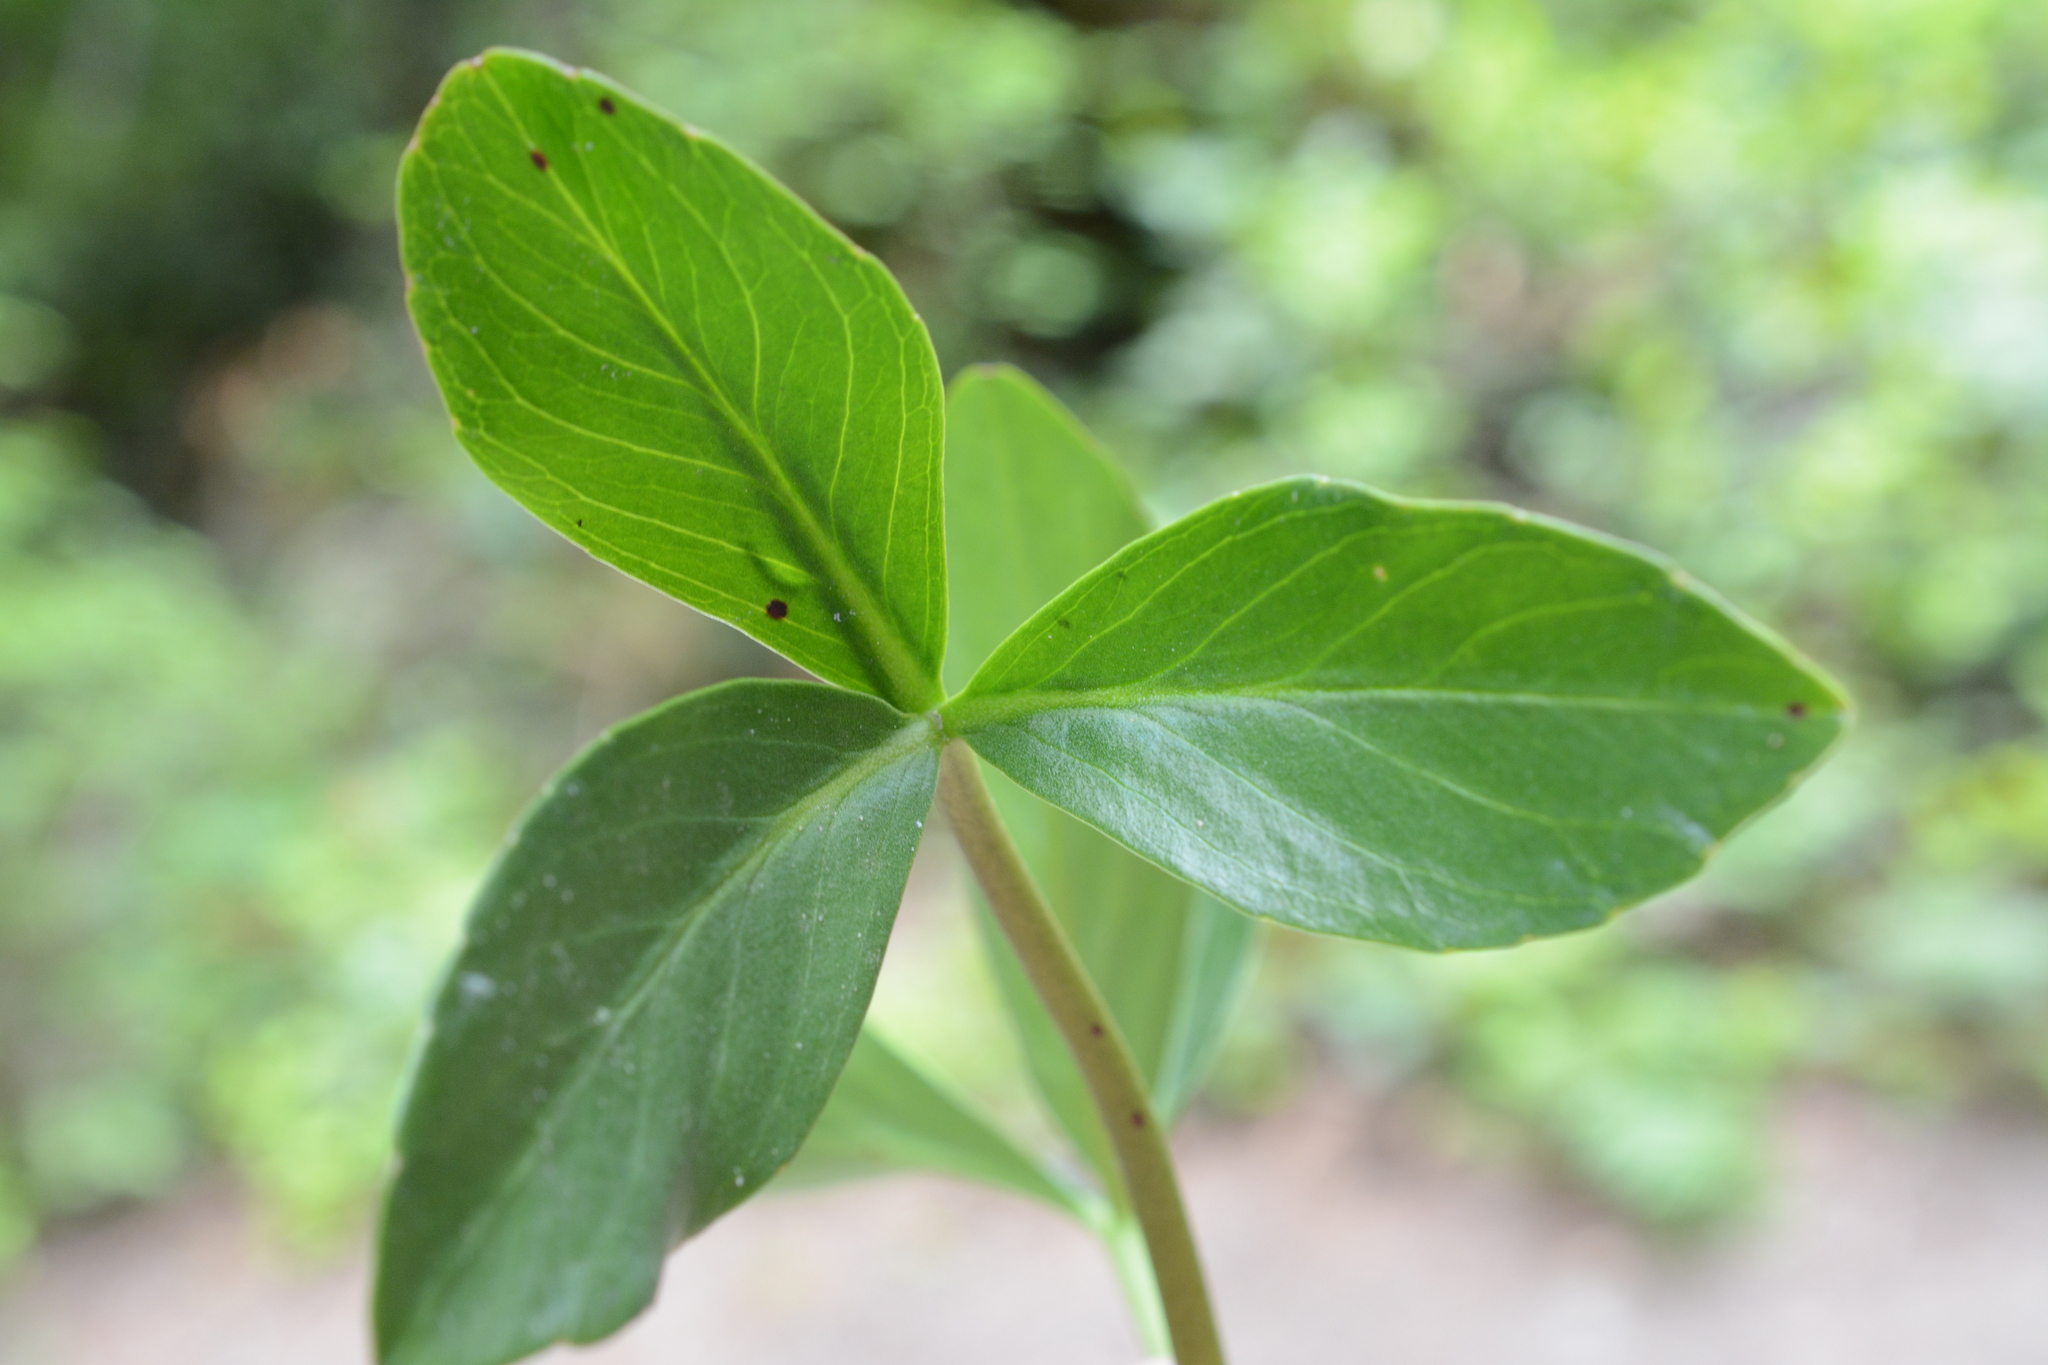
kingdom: Plantae
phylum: Tracheophyta
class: Magnoliopsida
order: Asterales
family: Menyanthaceae
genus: Menyanthes
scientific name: Menyanthes trifoliata
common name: Bogbean
